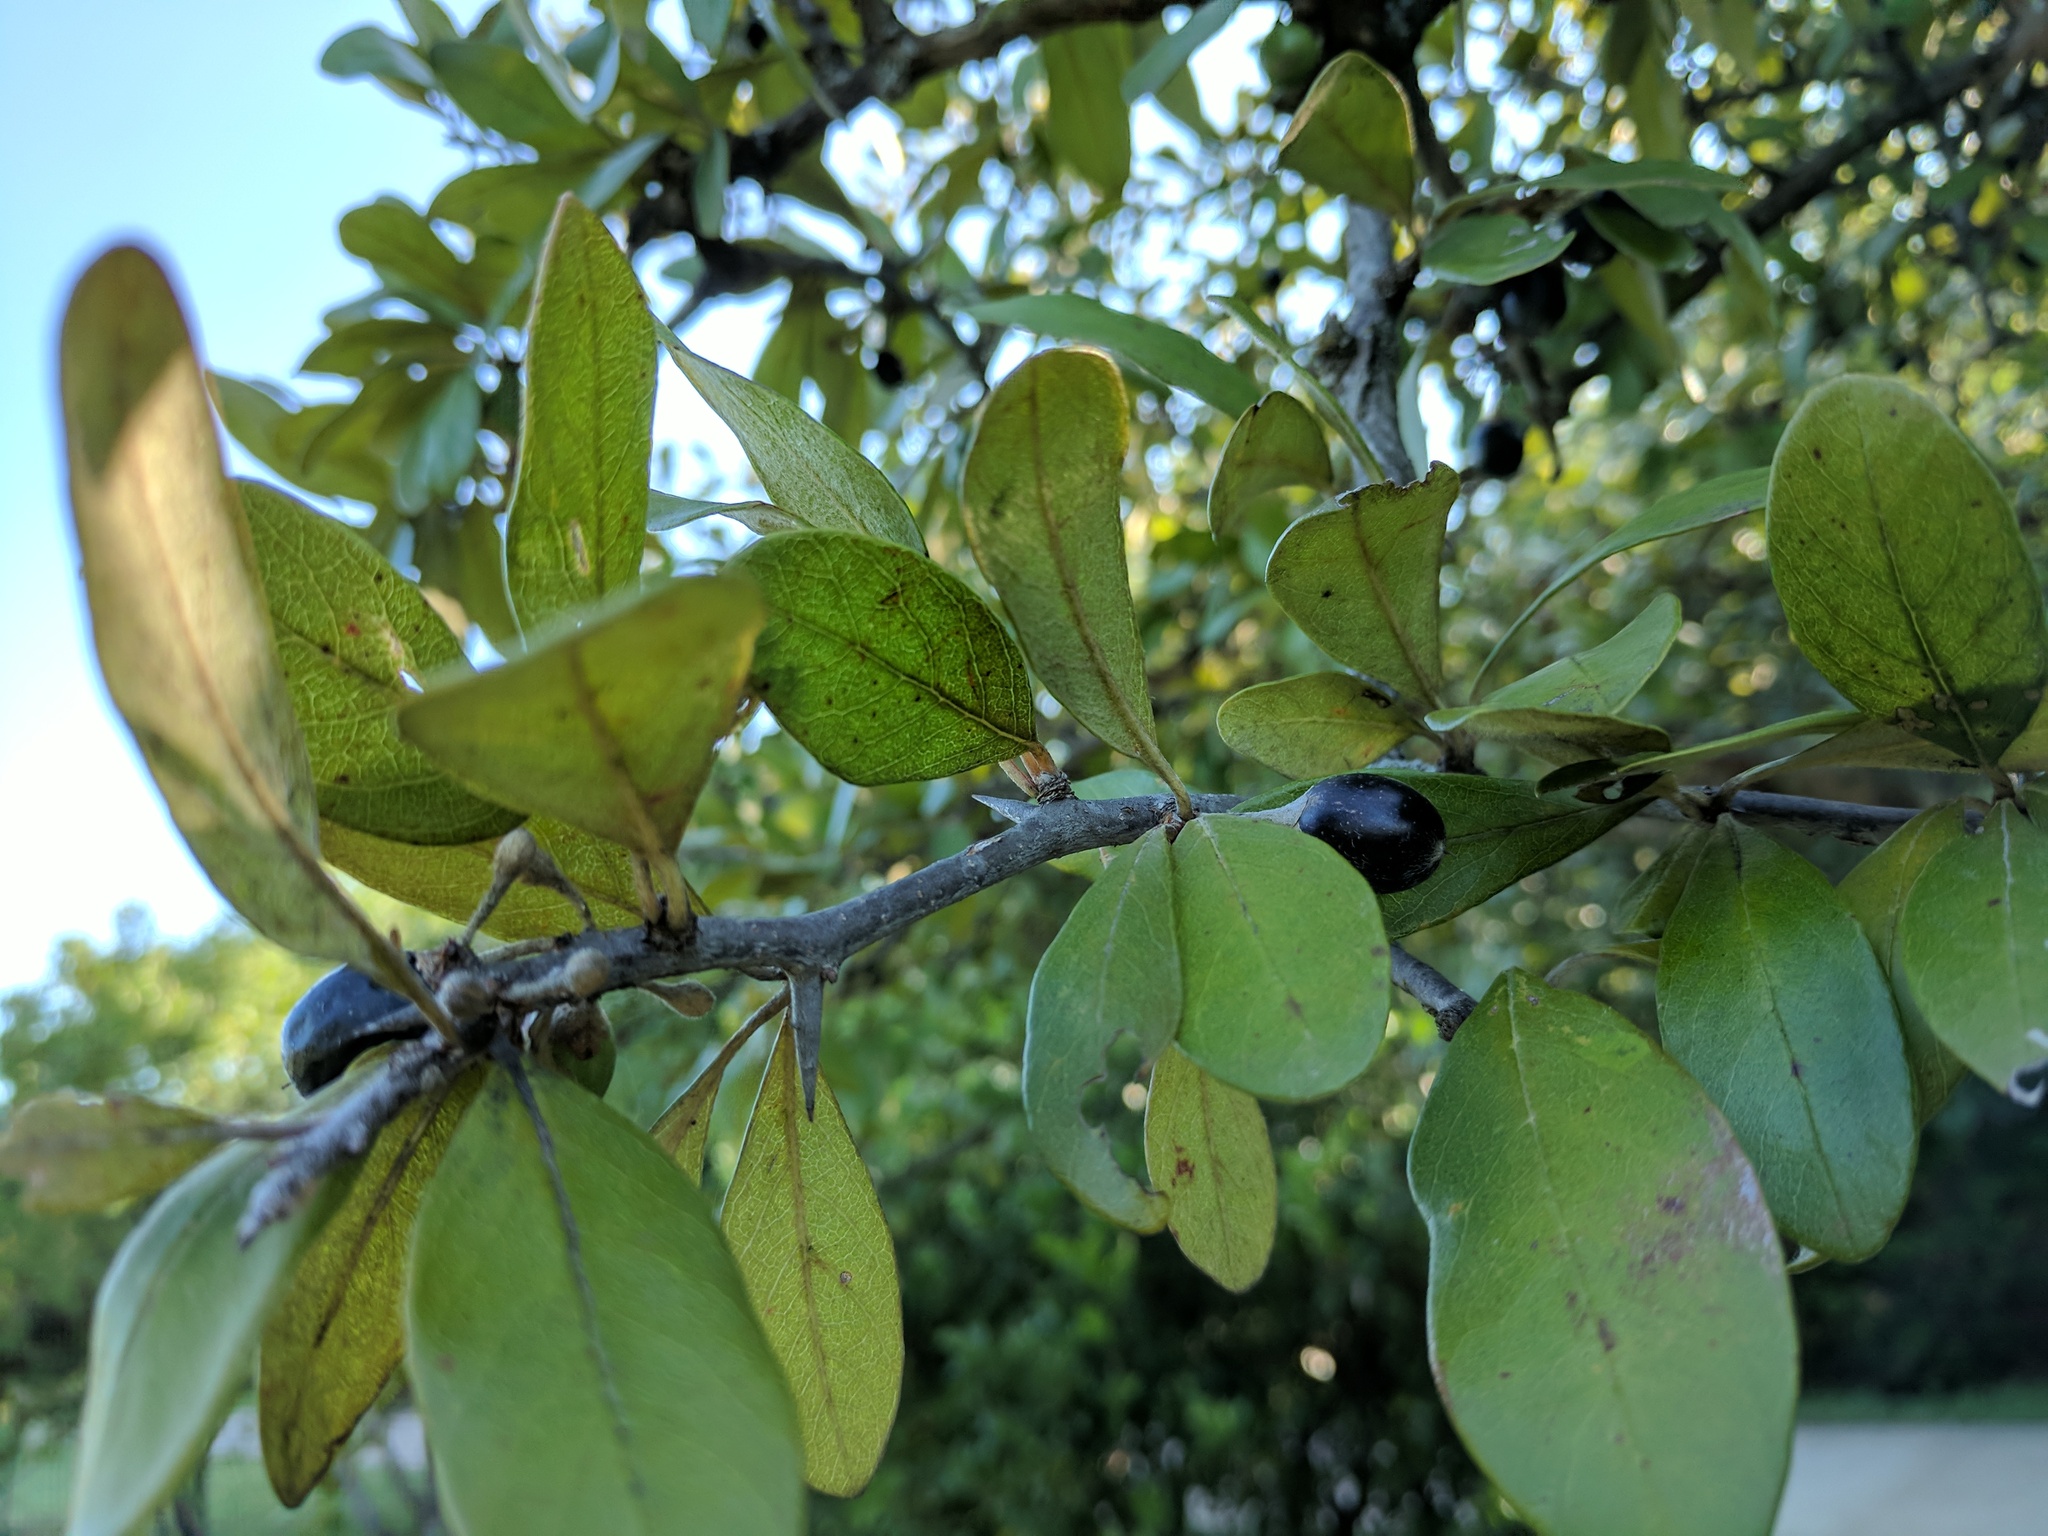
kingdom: Plantae
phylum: Tracheophyta
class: Magnoliopsida
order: Ericales
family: Sapotaceae
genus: Sideroxylon
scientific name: Sideroxylon lanuginosum
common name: Chittamwood
